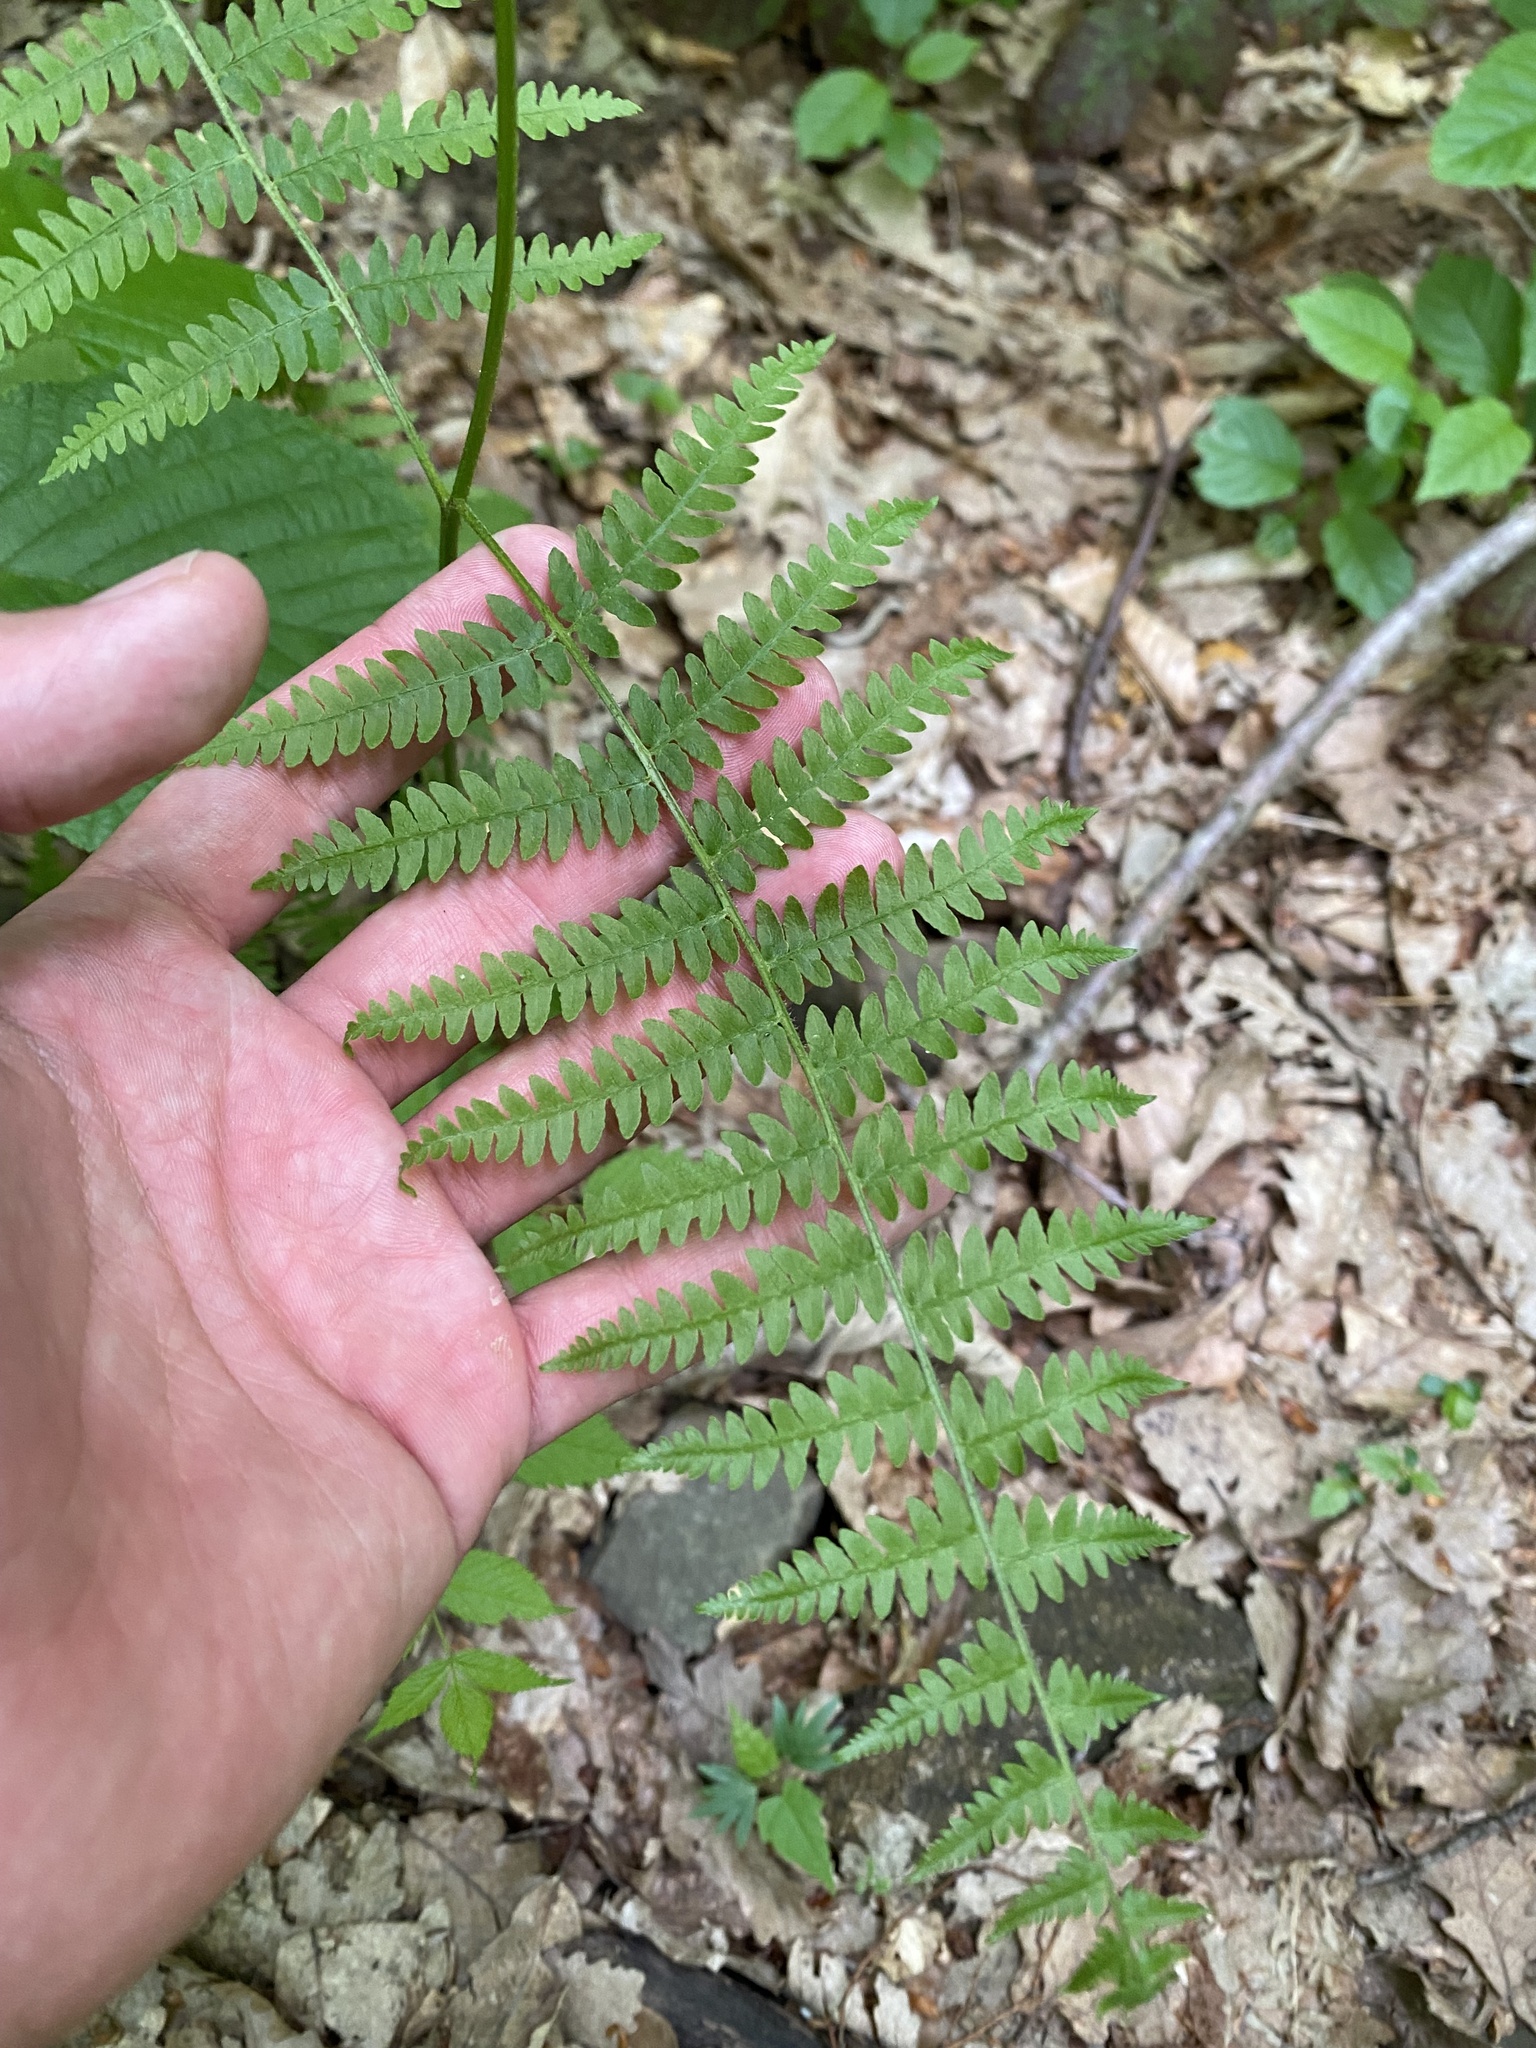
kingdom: Plantae
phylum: Tracheophyta
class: Polypodiopsida
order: Polypodiales
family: Dennstaedtiaceae
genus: Pteridium
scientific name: Pteridium tauricum
